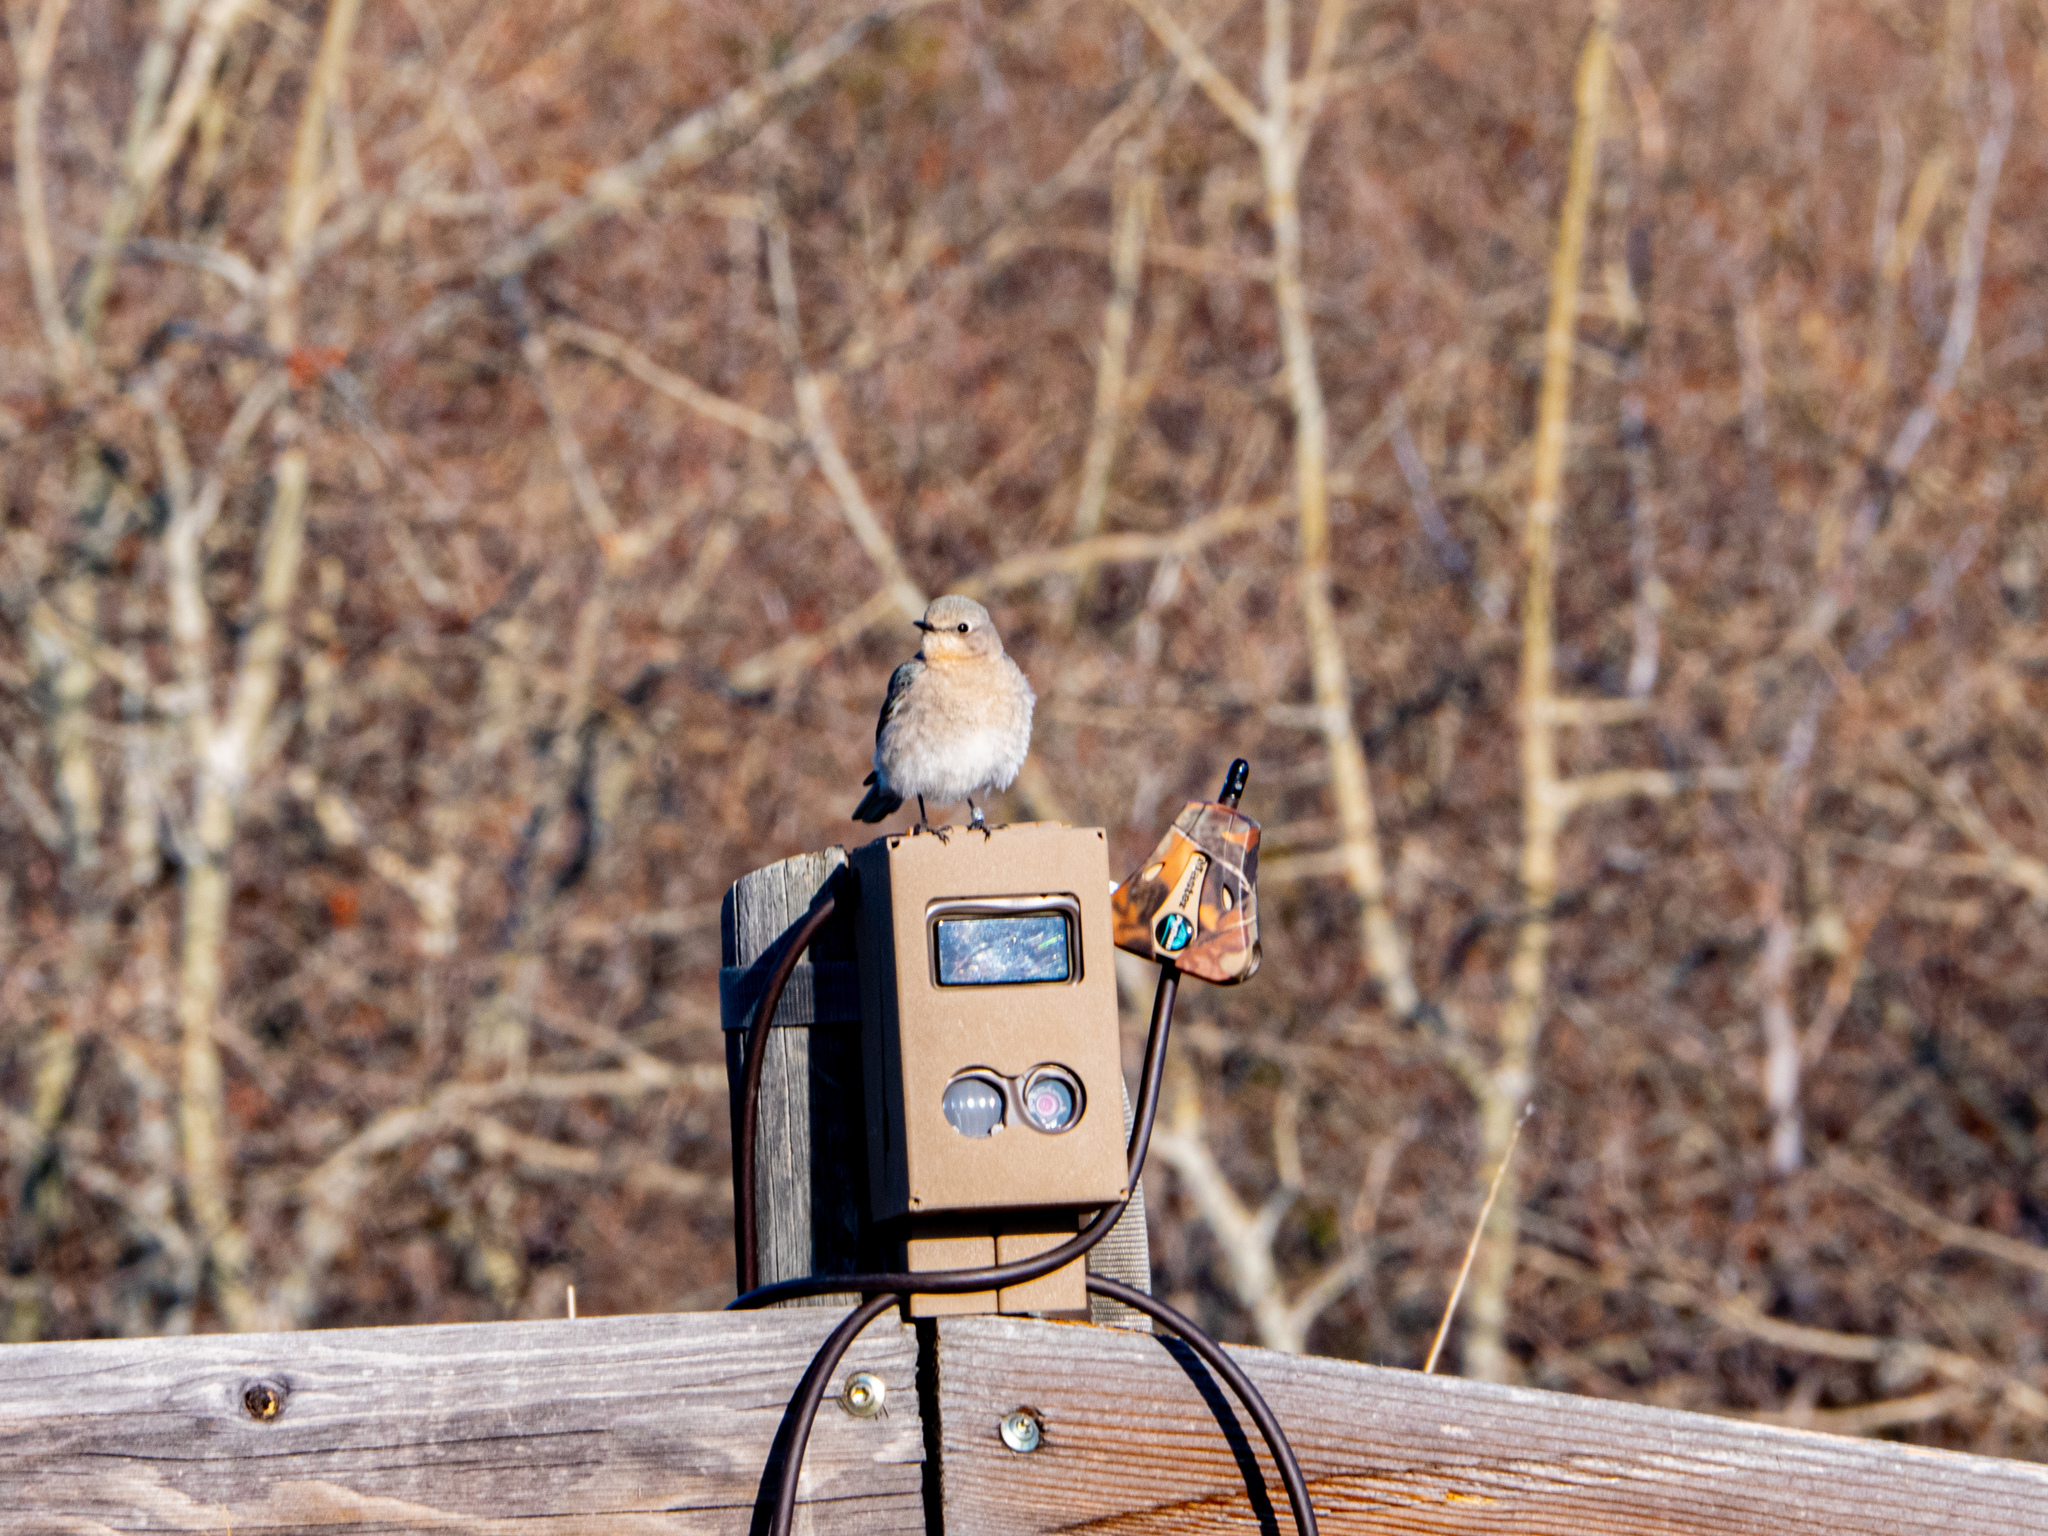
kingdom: Animalia
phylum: Chordata
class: Aves
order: Passeriformes
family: Turdidae
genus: Sialia
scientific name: Sialia currucoides
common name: Mountain bluebird
